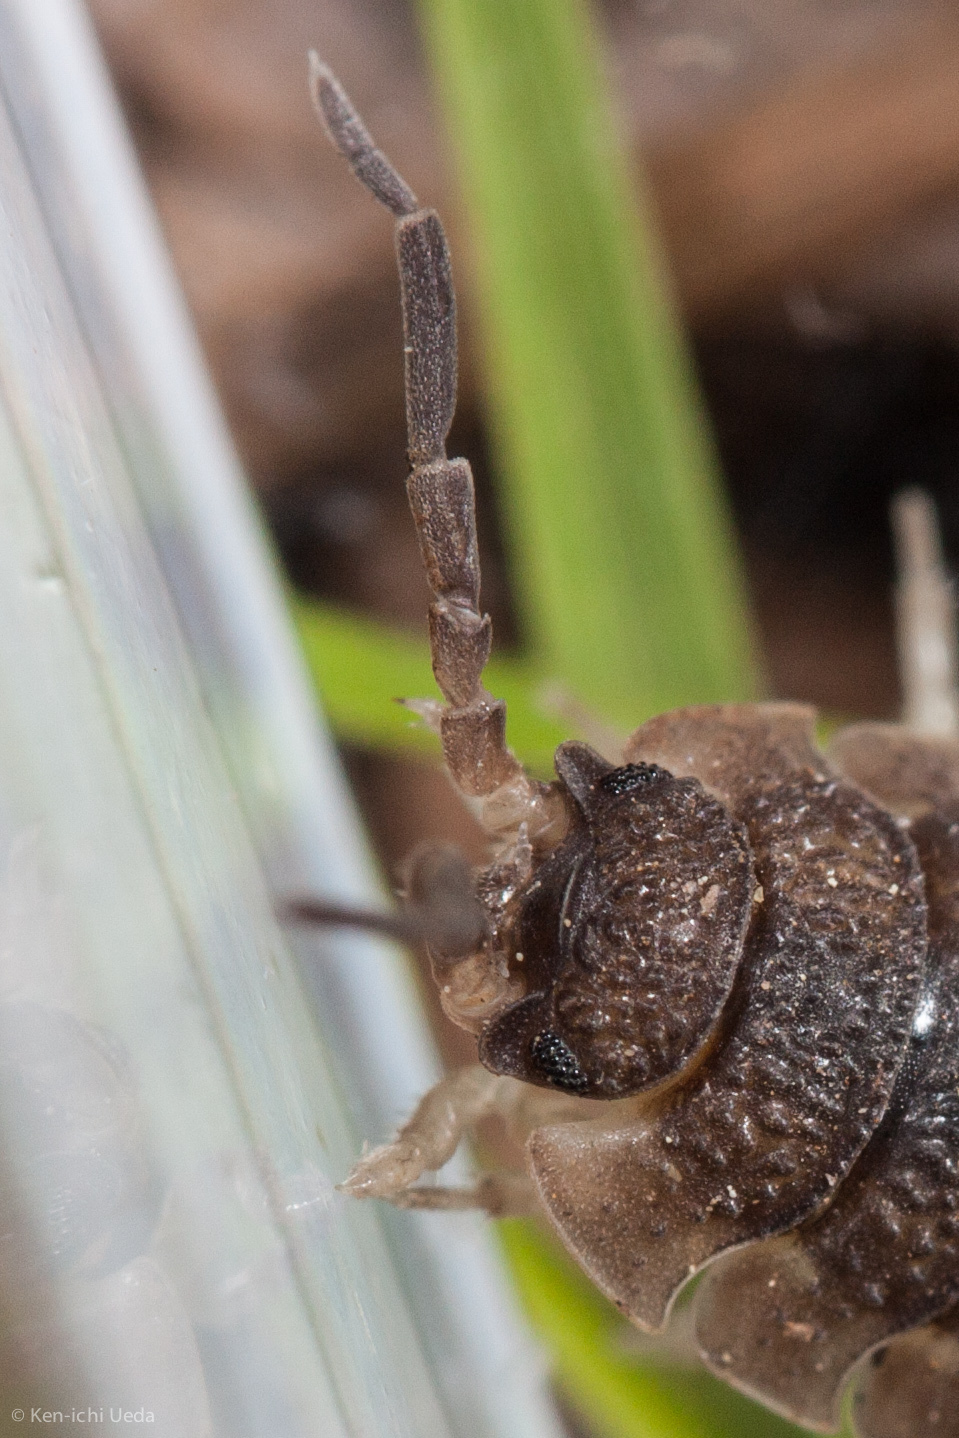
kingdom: Animalia
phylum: Arthropoda
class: Malacostraca
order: Isopoda
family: Porcellionidae
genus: Porcellio
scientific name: Porcellio scaber
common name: Common rough woodlouse
